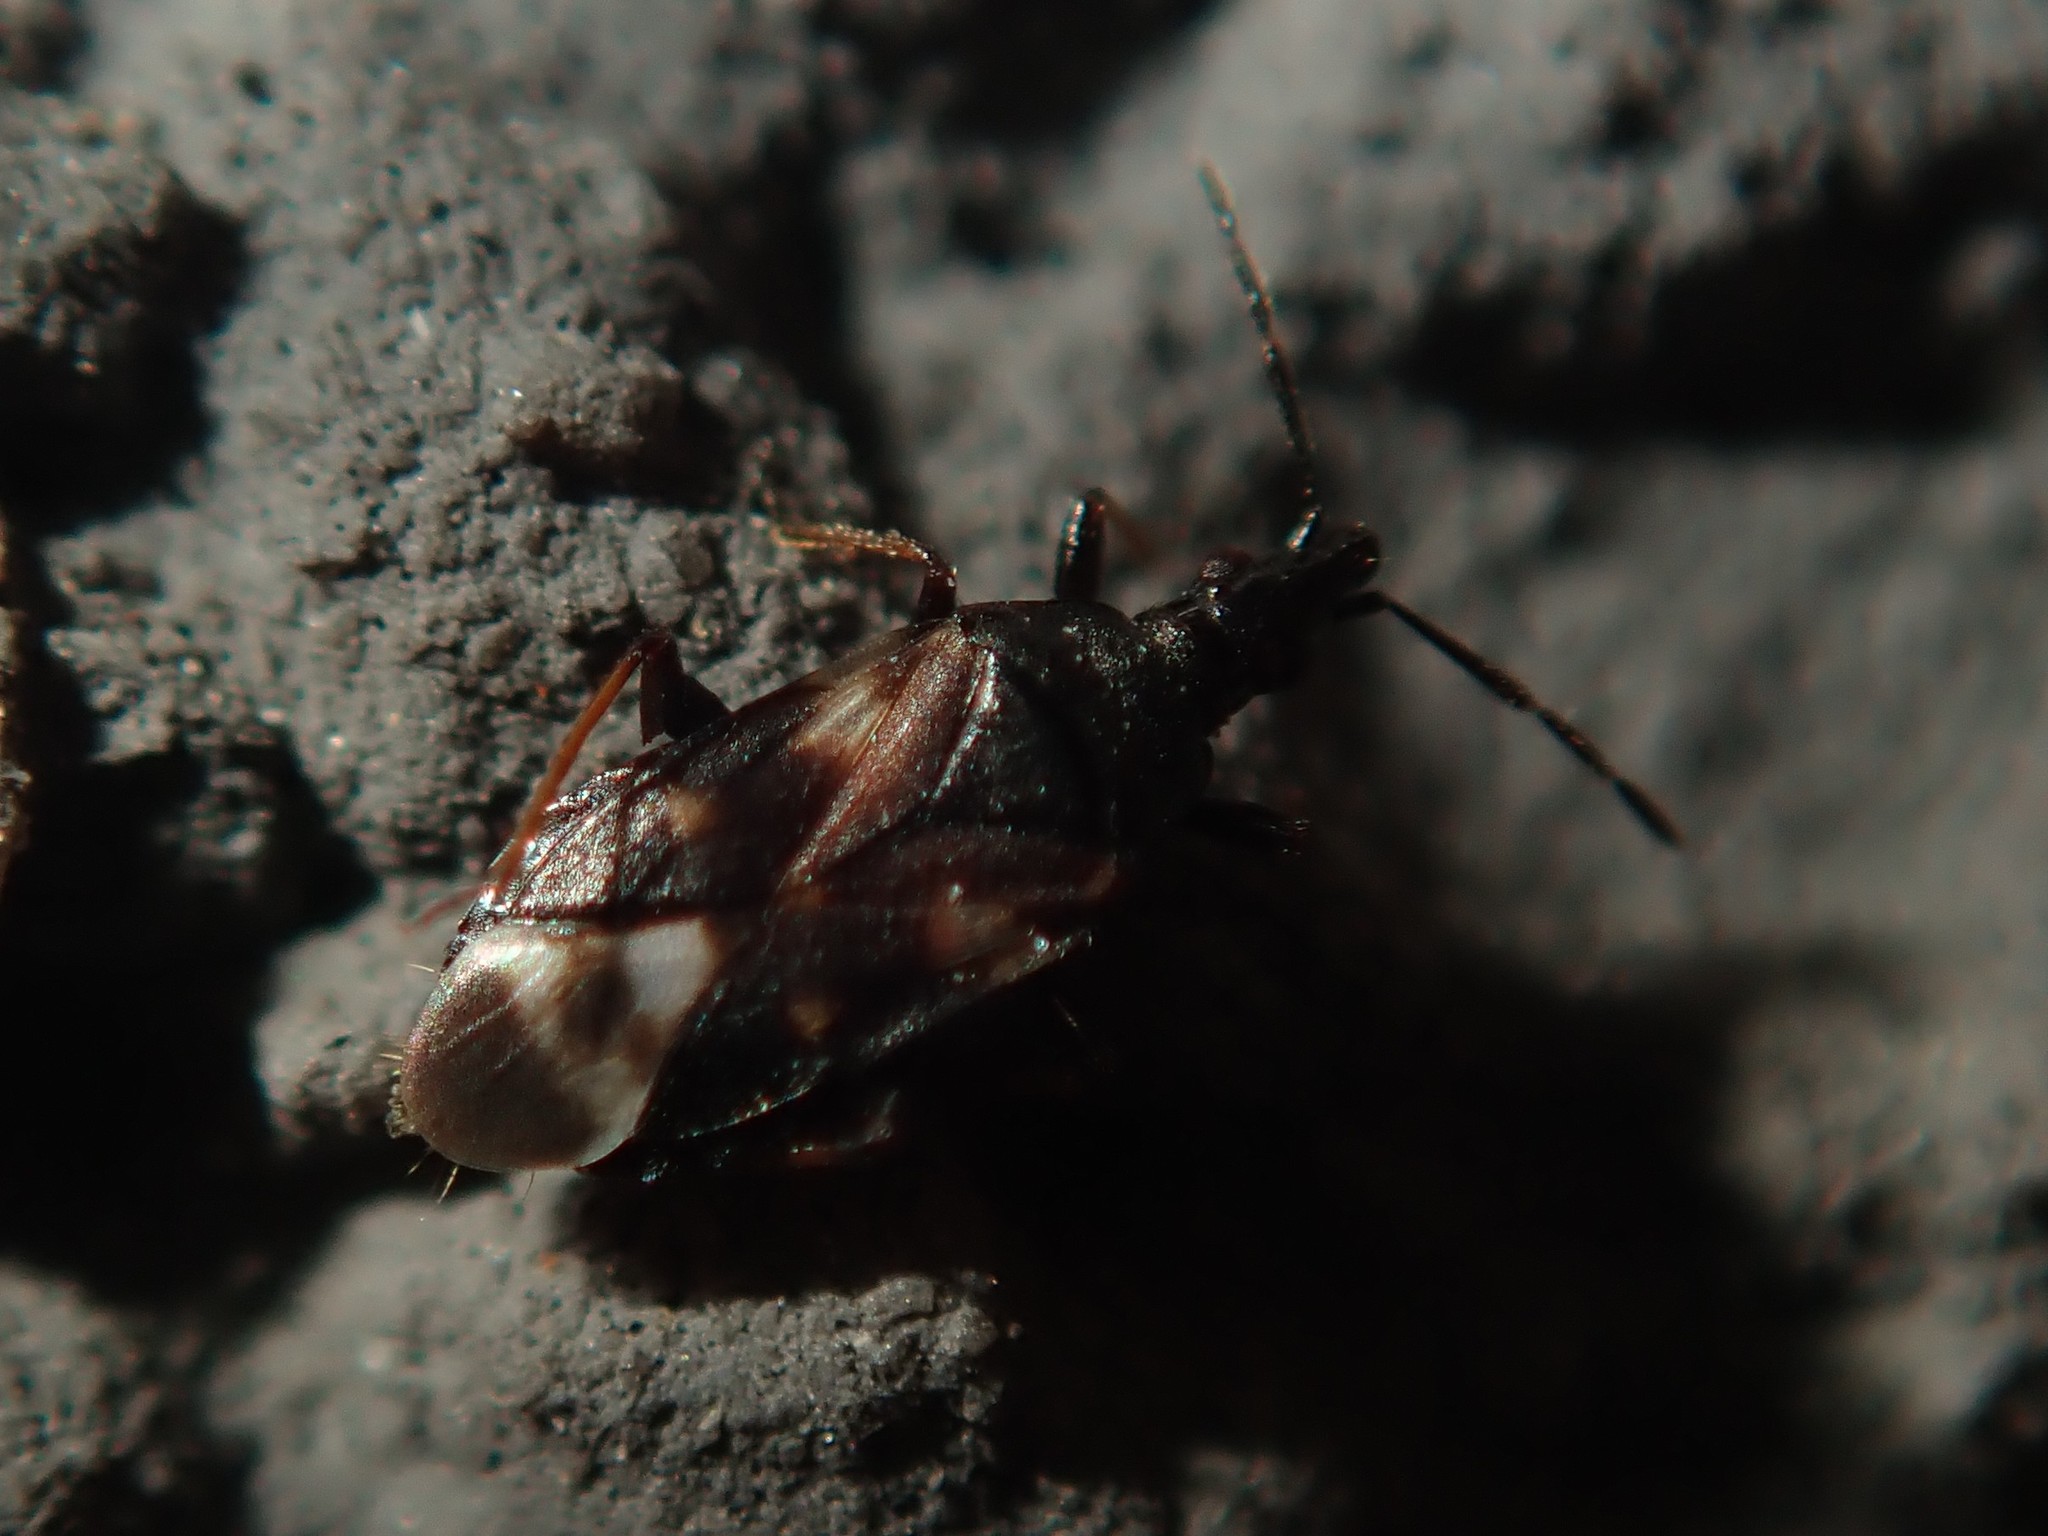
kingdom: Animalia
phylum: Arthropoda
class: Insecta
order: Hemiptera
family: Anthocoridae
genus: Temnostethus
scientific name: Temnostethus pusillus
